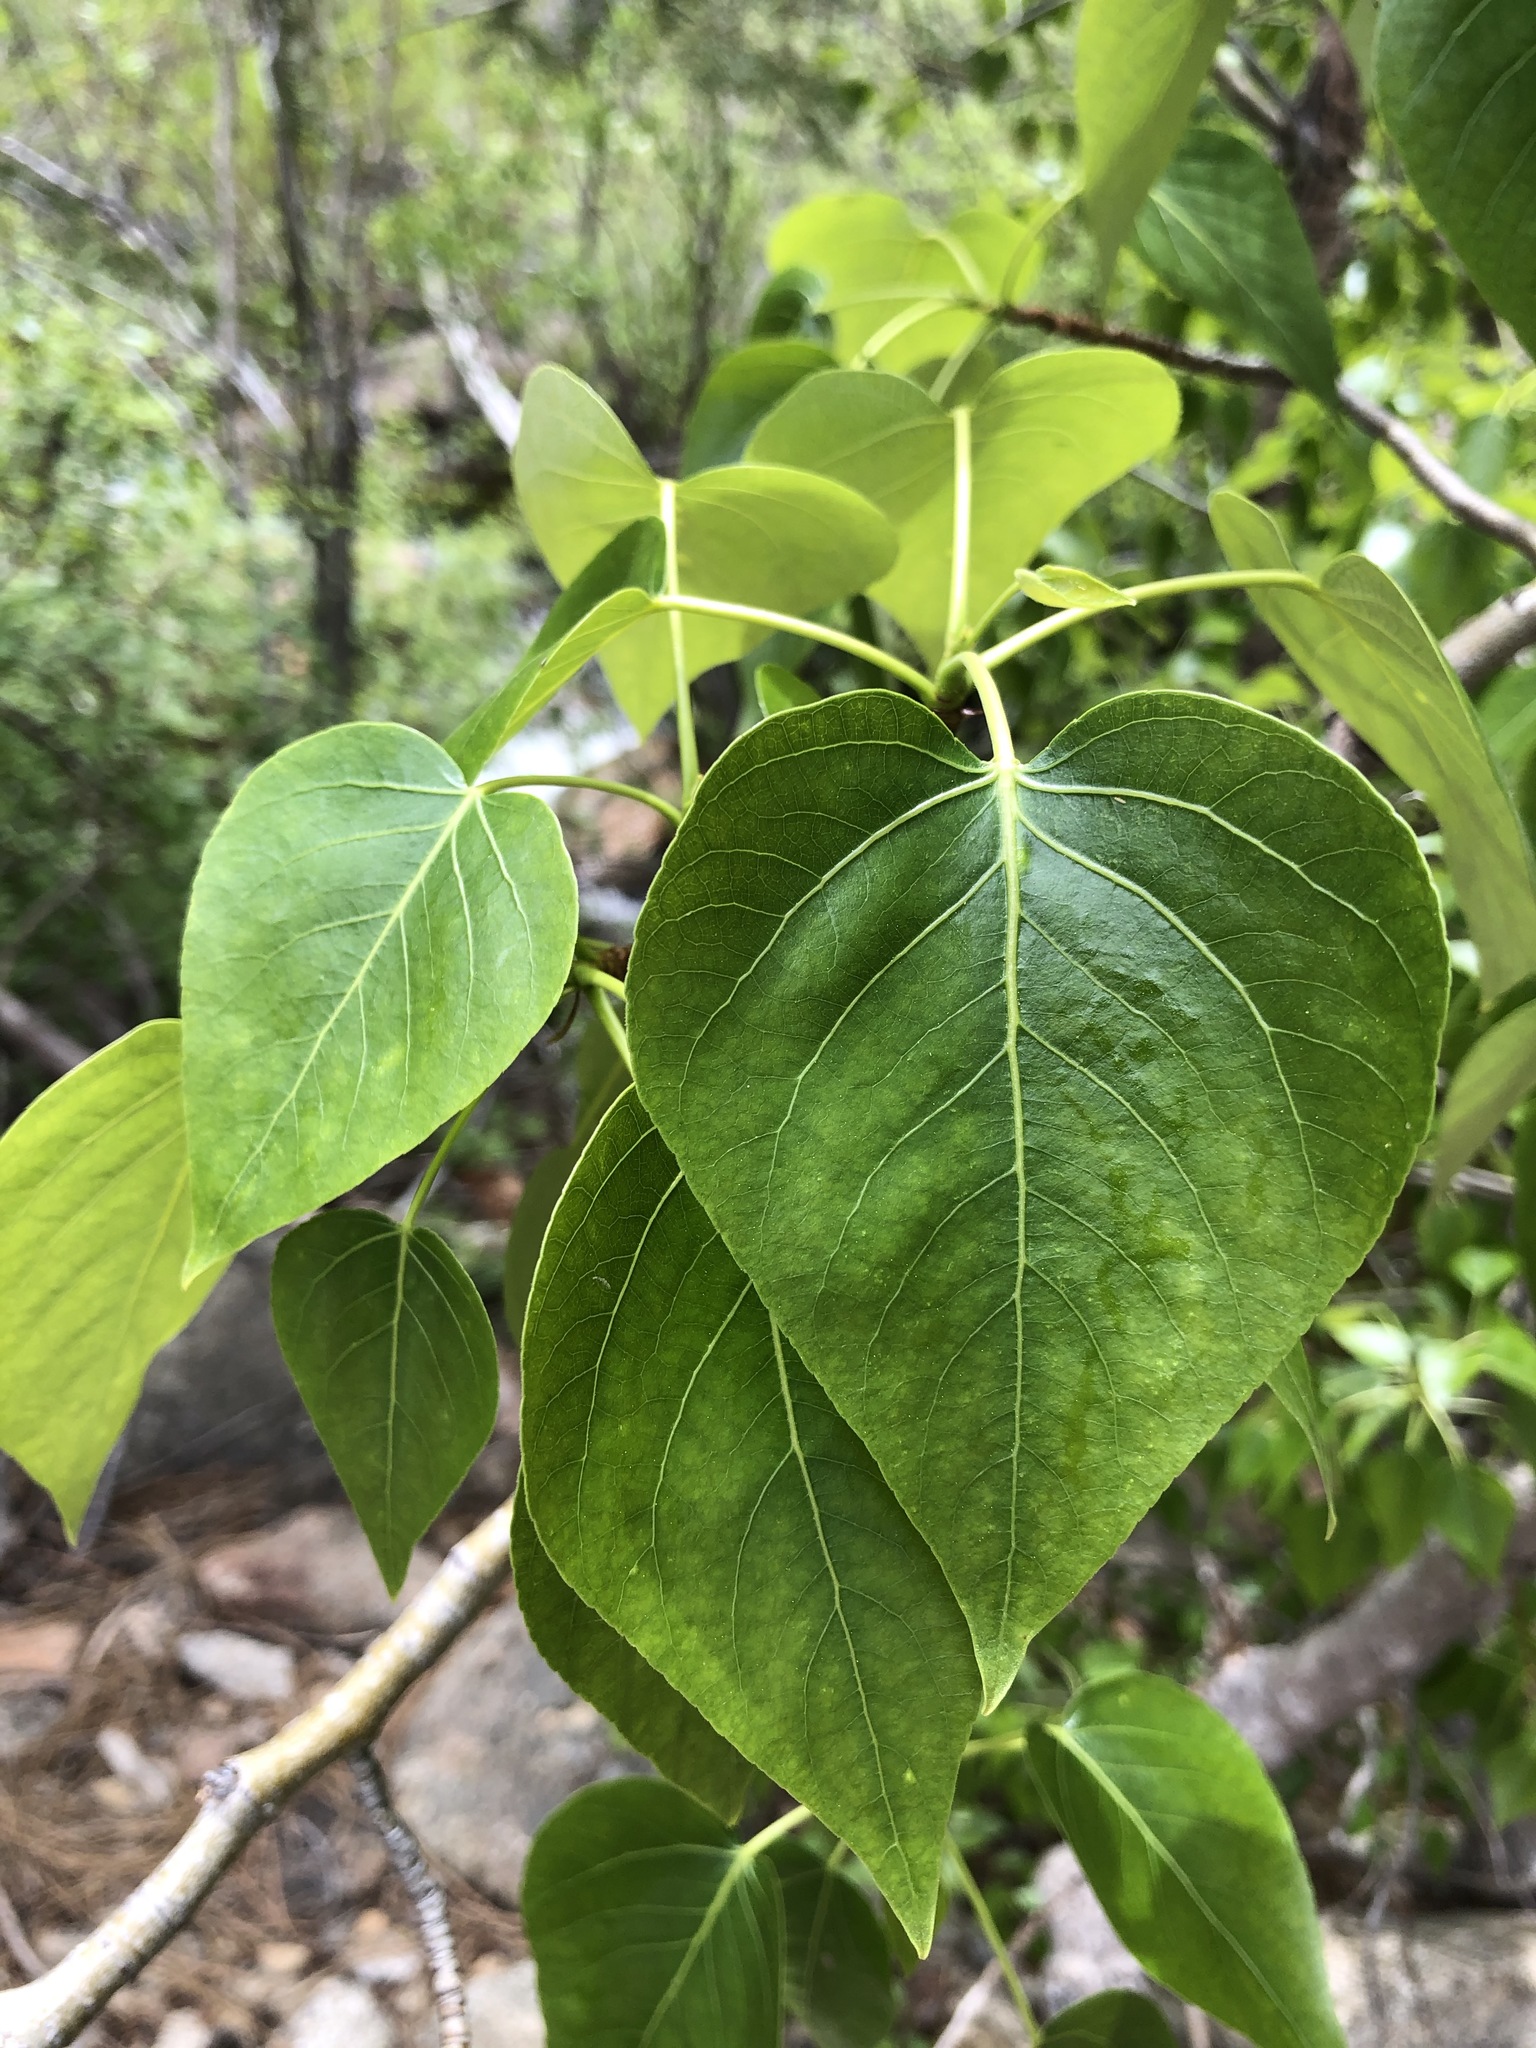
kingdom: Plantae
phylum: Tracheophyta
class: Magnoliopsida
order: Malpighiales
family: Salicaceae
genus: Populus
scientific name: Populus trichocarpa
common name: Black cottonwood
